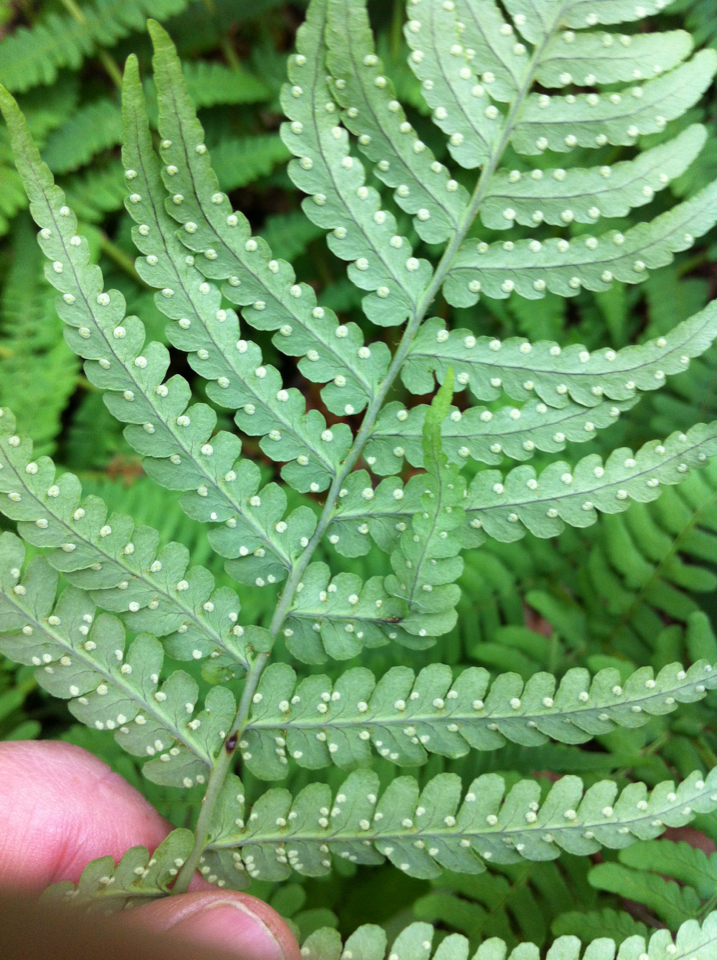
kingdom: Plantae
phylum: Tracheophyta
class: Polypodiopsida
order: Polypodiales
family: Dryopteridaceae
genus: Dryopteris
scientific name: Dryopteris marginalis
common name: Marginal wood fern
